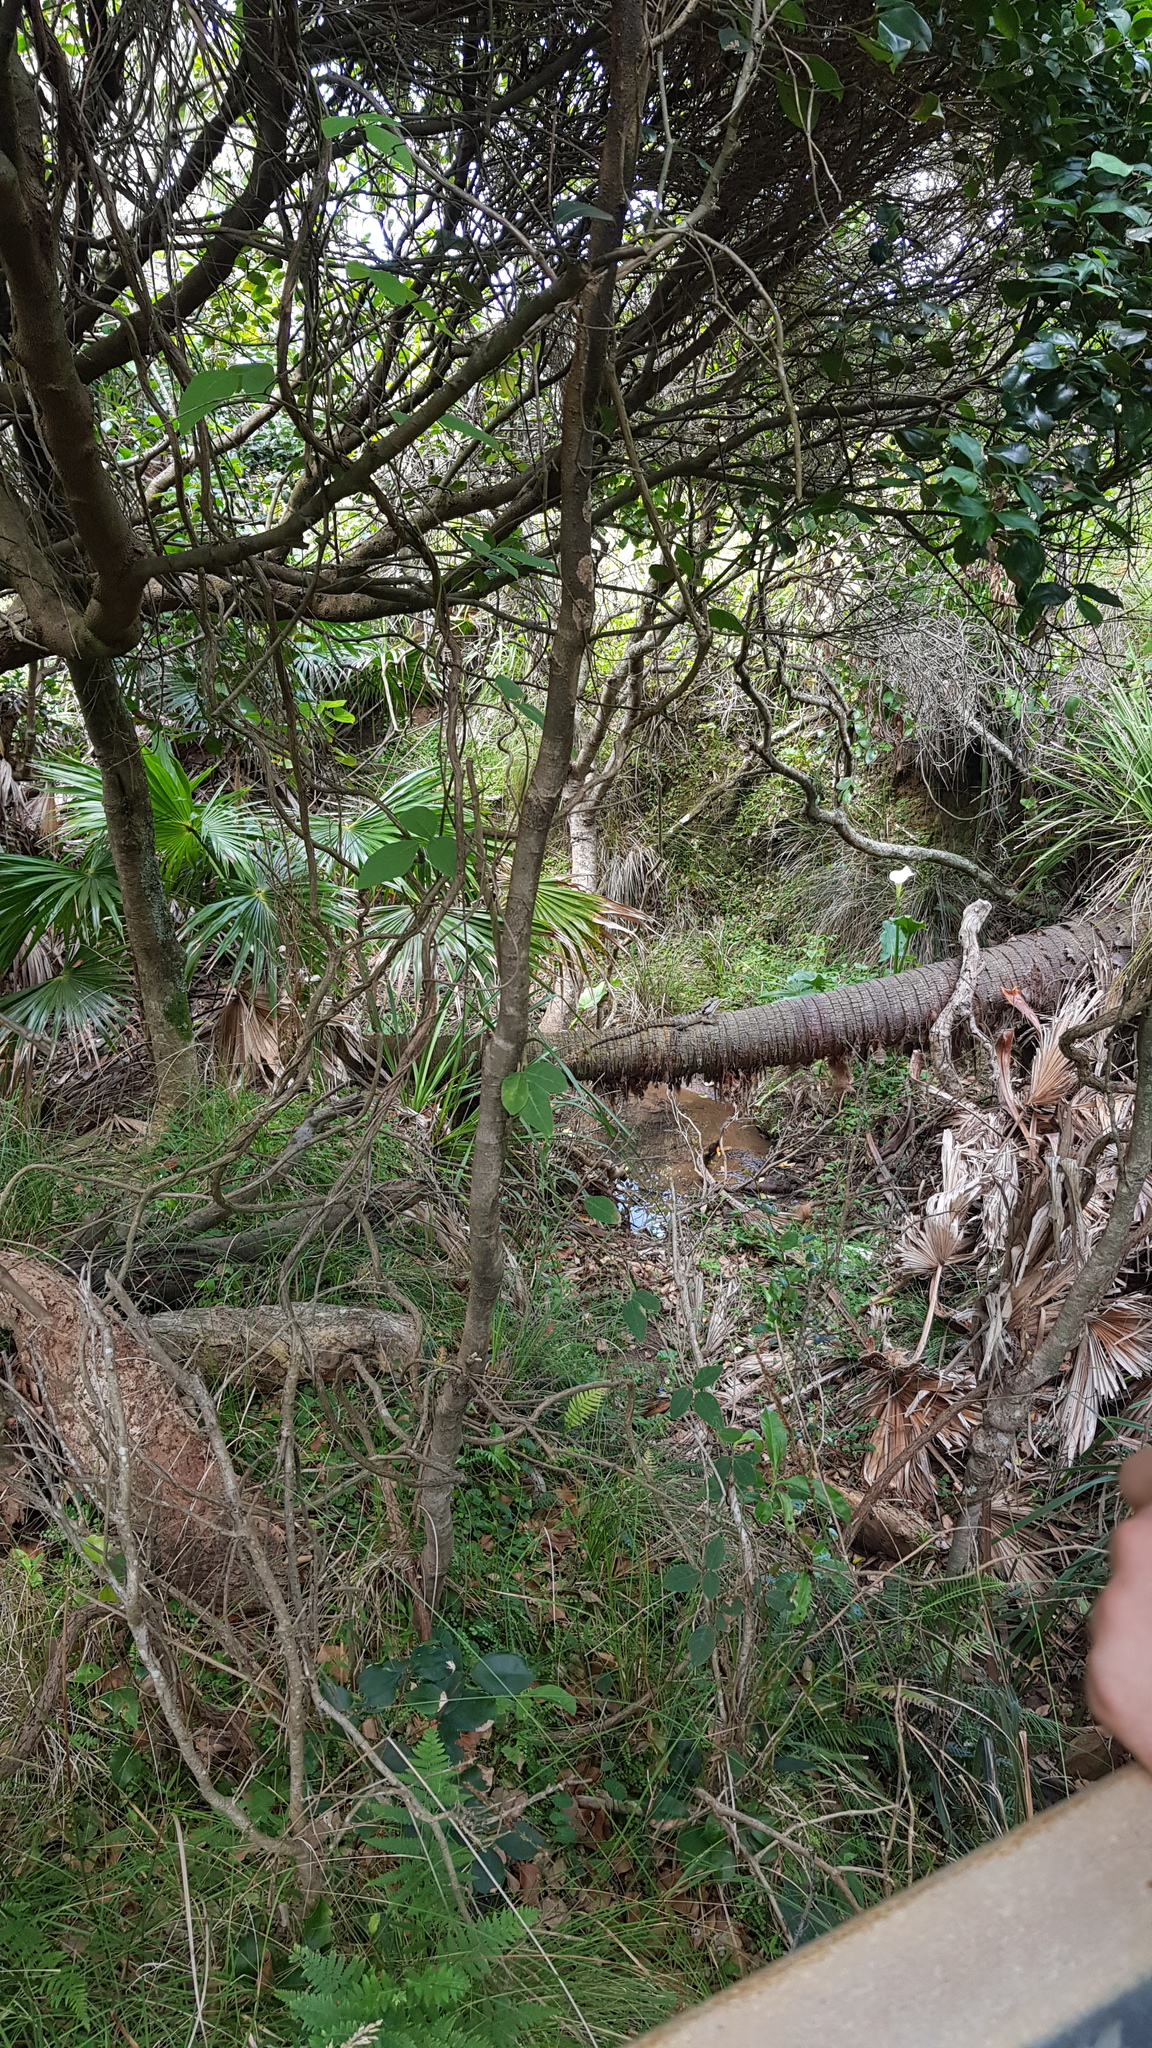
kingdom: Animalia
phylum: Chordata
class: Squamata
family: Agamidae
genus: Intellagama
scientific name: Intellagama lesueurii
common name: Eastern water dragon
